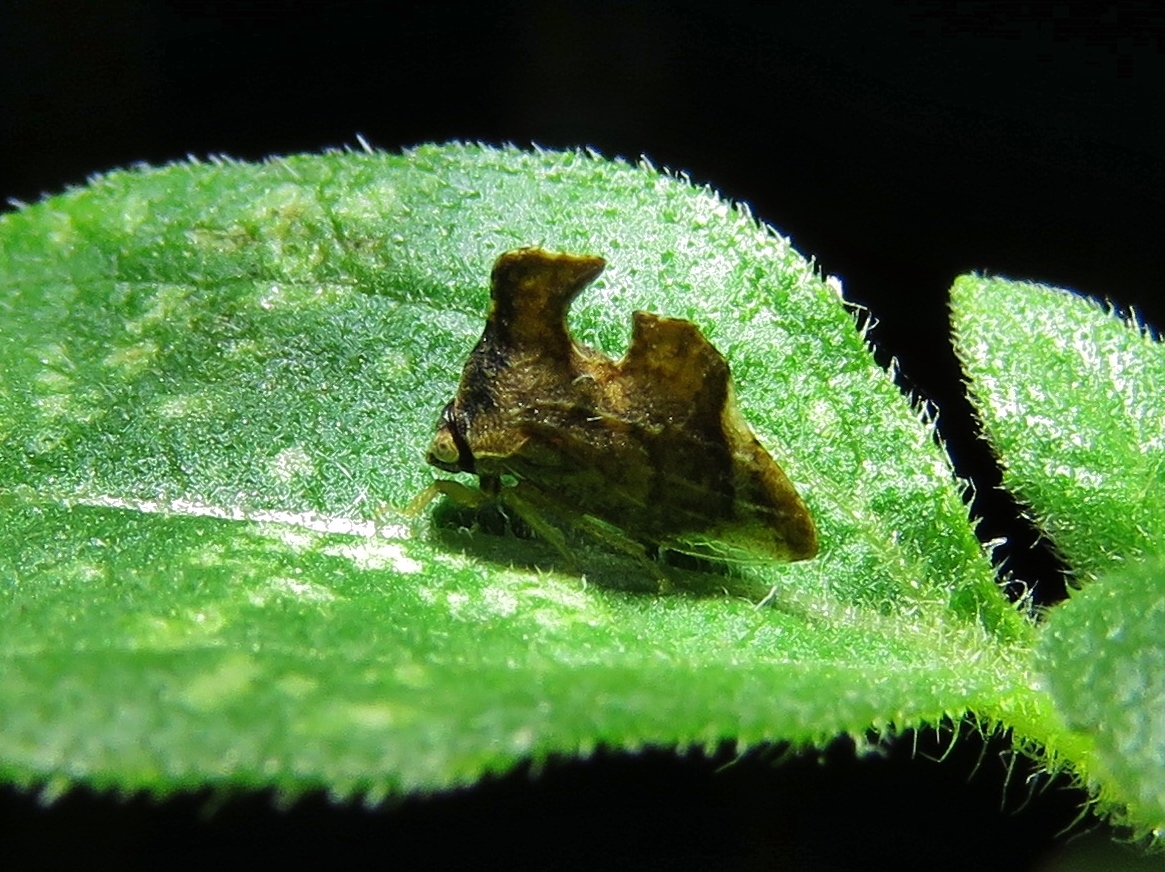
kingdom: Animalia
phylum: Arthropoda
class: Insecta
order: Hemiptera
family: Membracidae
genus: Entylia
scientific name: Entylia carinata
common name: Keeled treehopper
